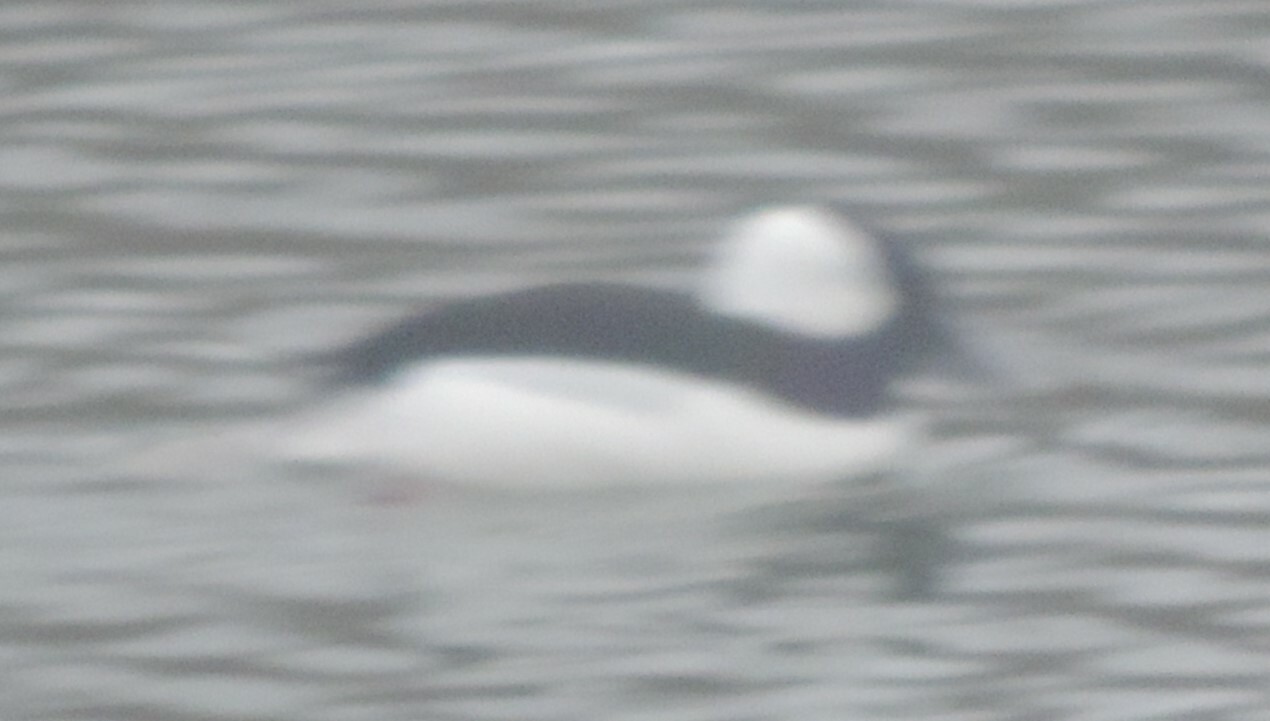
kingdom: Animalia
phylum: Chordata
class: Aves
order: Anseriformes
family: Anatidae
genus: Bucephala
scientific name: Bucephala albeola
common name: Bufflehead
